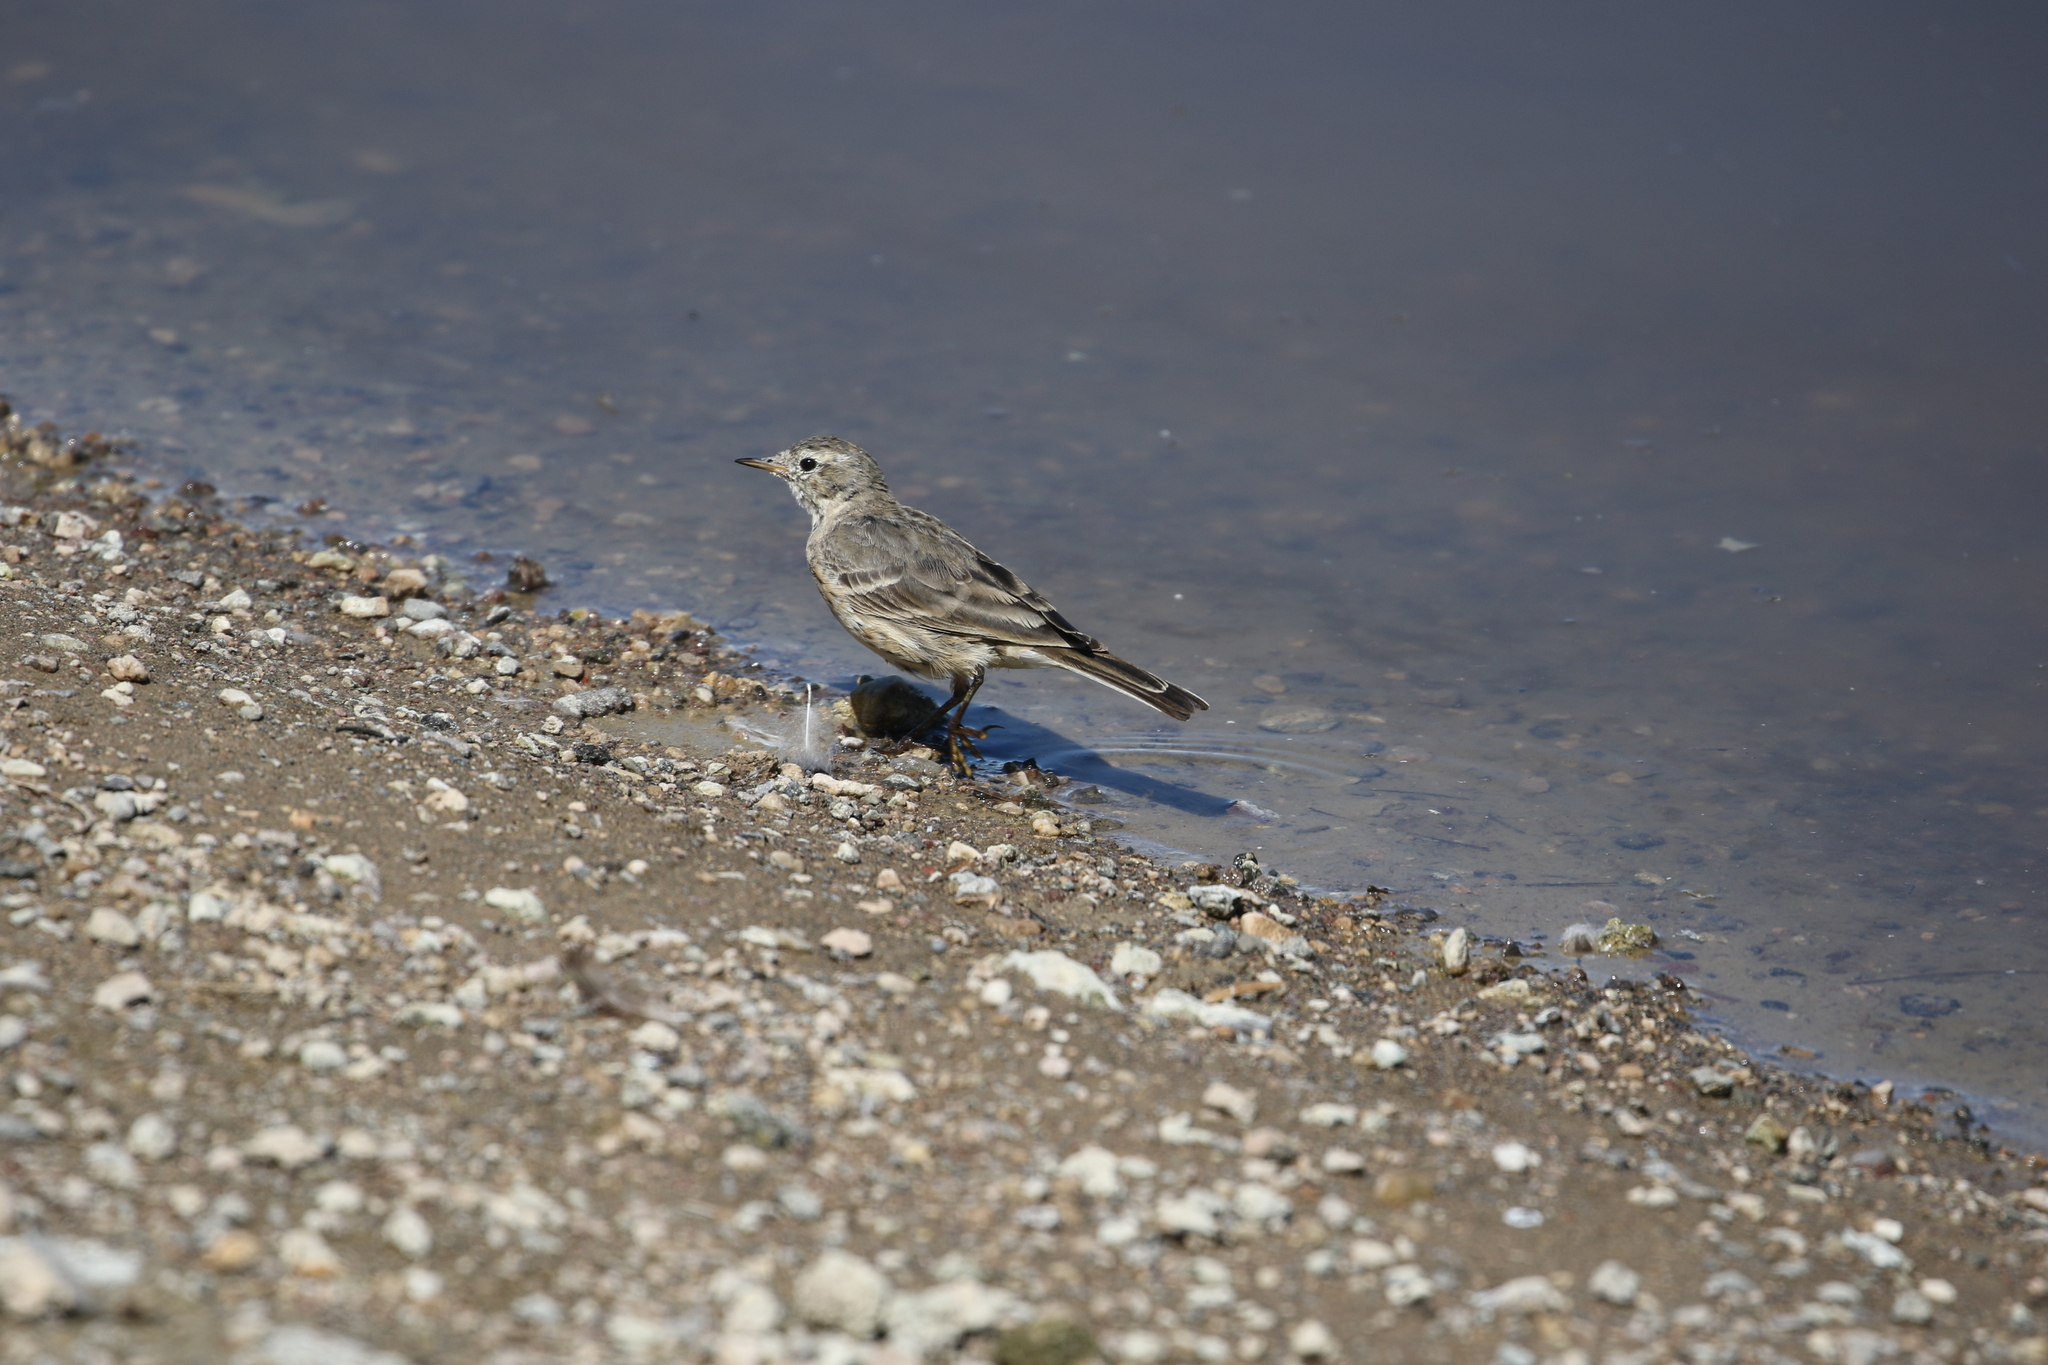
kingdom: Animalia
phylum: Chordata
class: Aves
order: Passeriformes
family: Motacillidae
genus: Anthus
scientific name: Anthus rubescens
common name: Buff-bellied pipit
